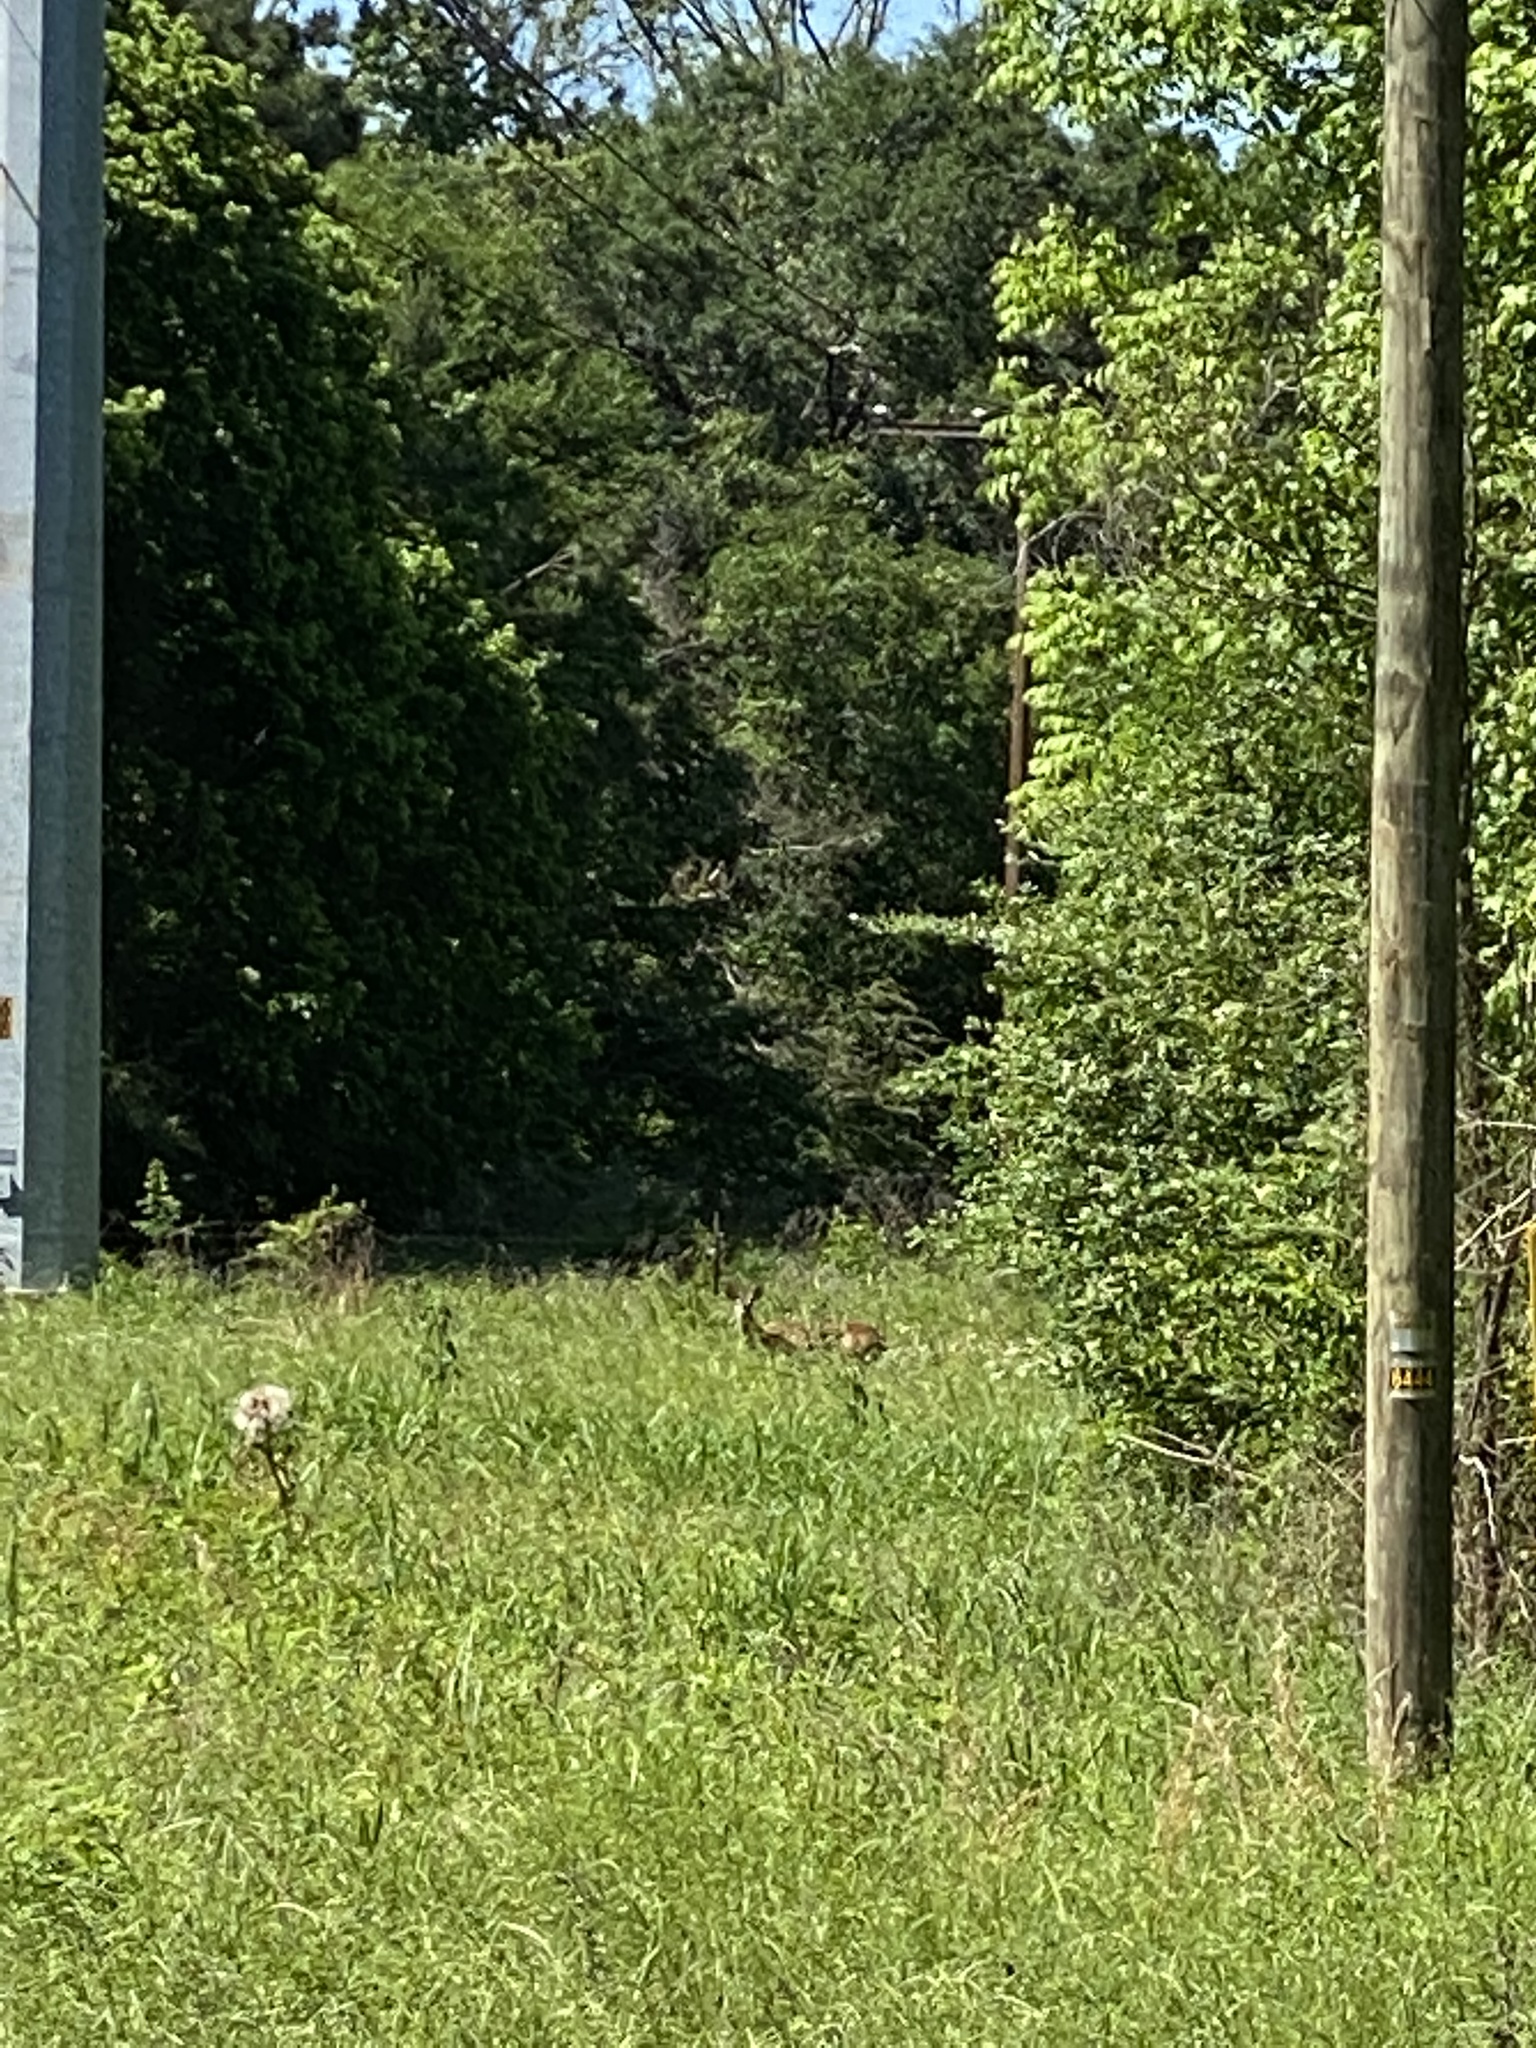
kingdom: Animalia
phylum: Chordata
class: Mammalia
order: Artiodactyla
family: Cervidae
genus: Odocoileus
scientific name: Odocoileus virginianus
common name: White-tailed deer
